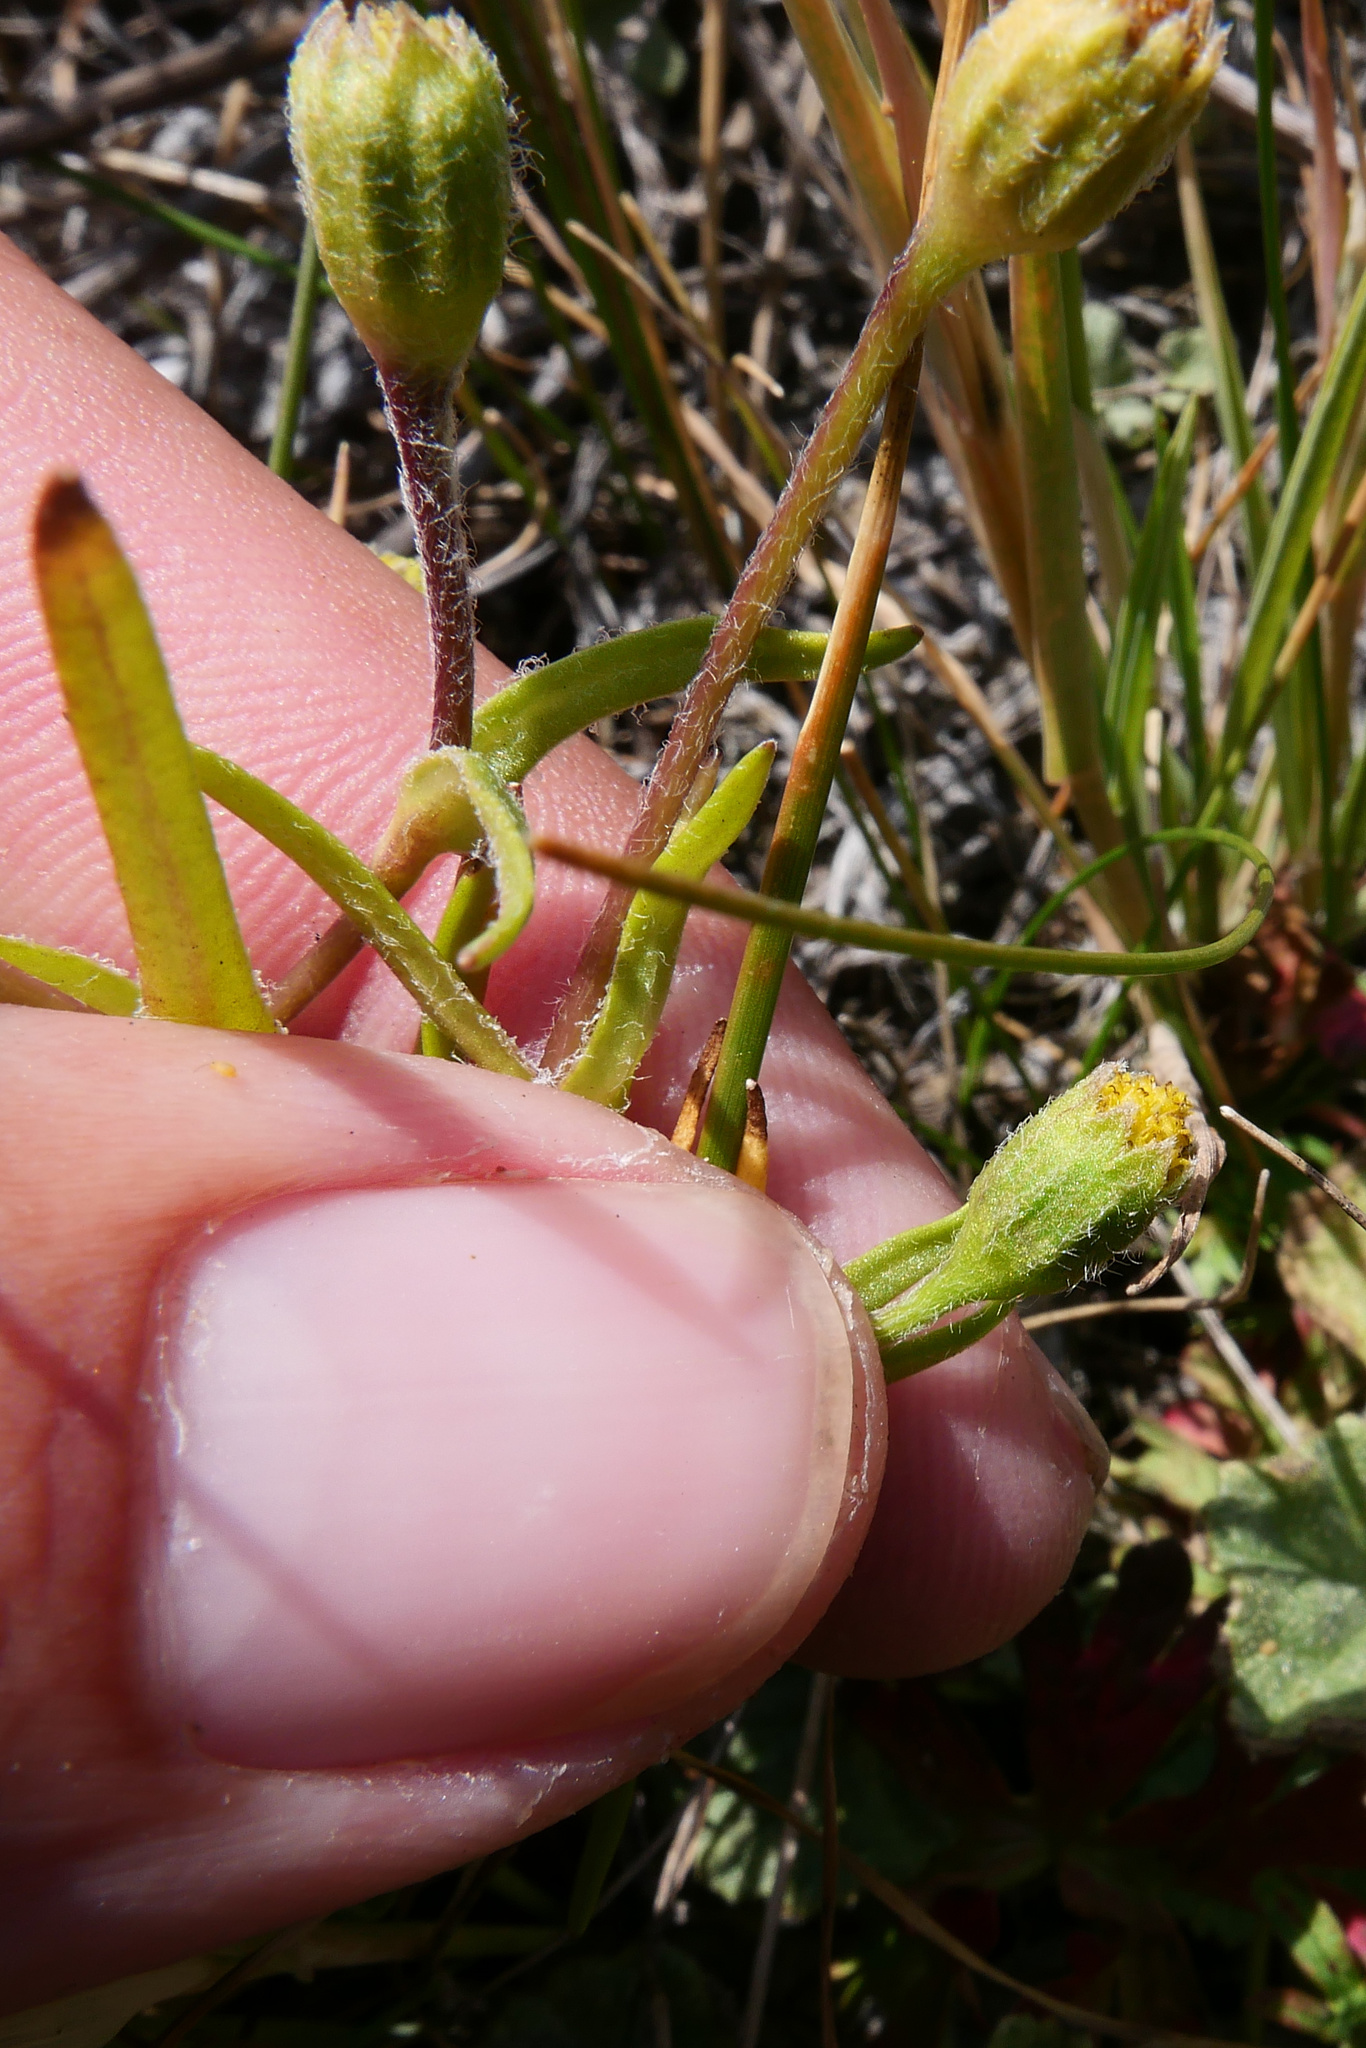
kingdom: Plantae
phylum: Tracheophyta
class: Magnoliopsida
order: Asterales
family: Asteraceae
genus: Lasthenia
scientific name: Lasthenia glaberrima
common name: Smooth goldfields
